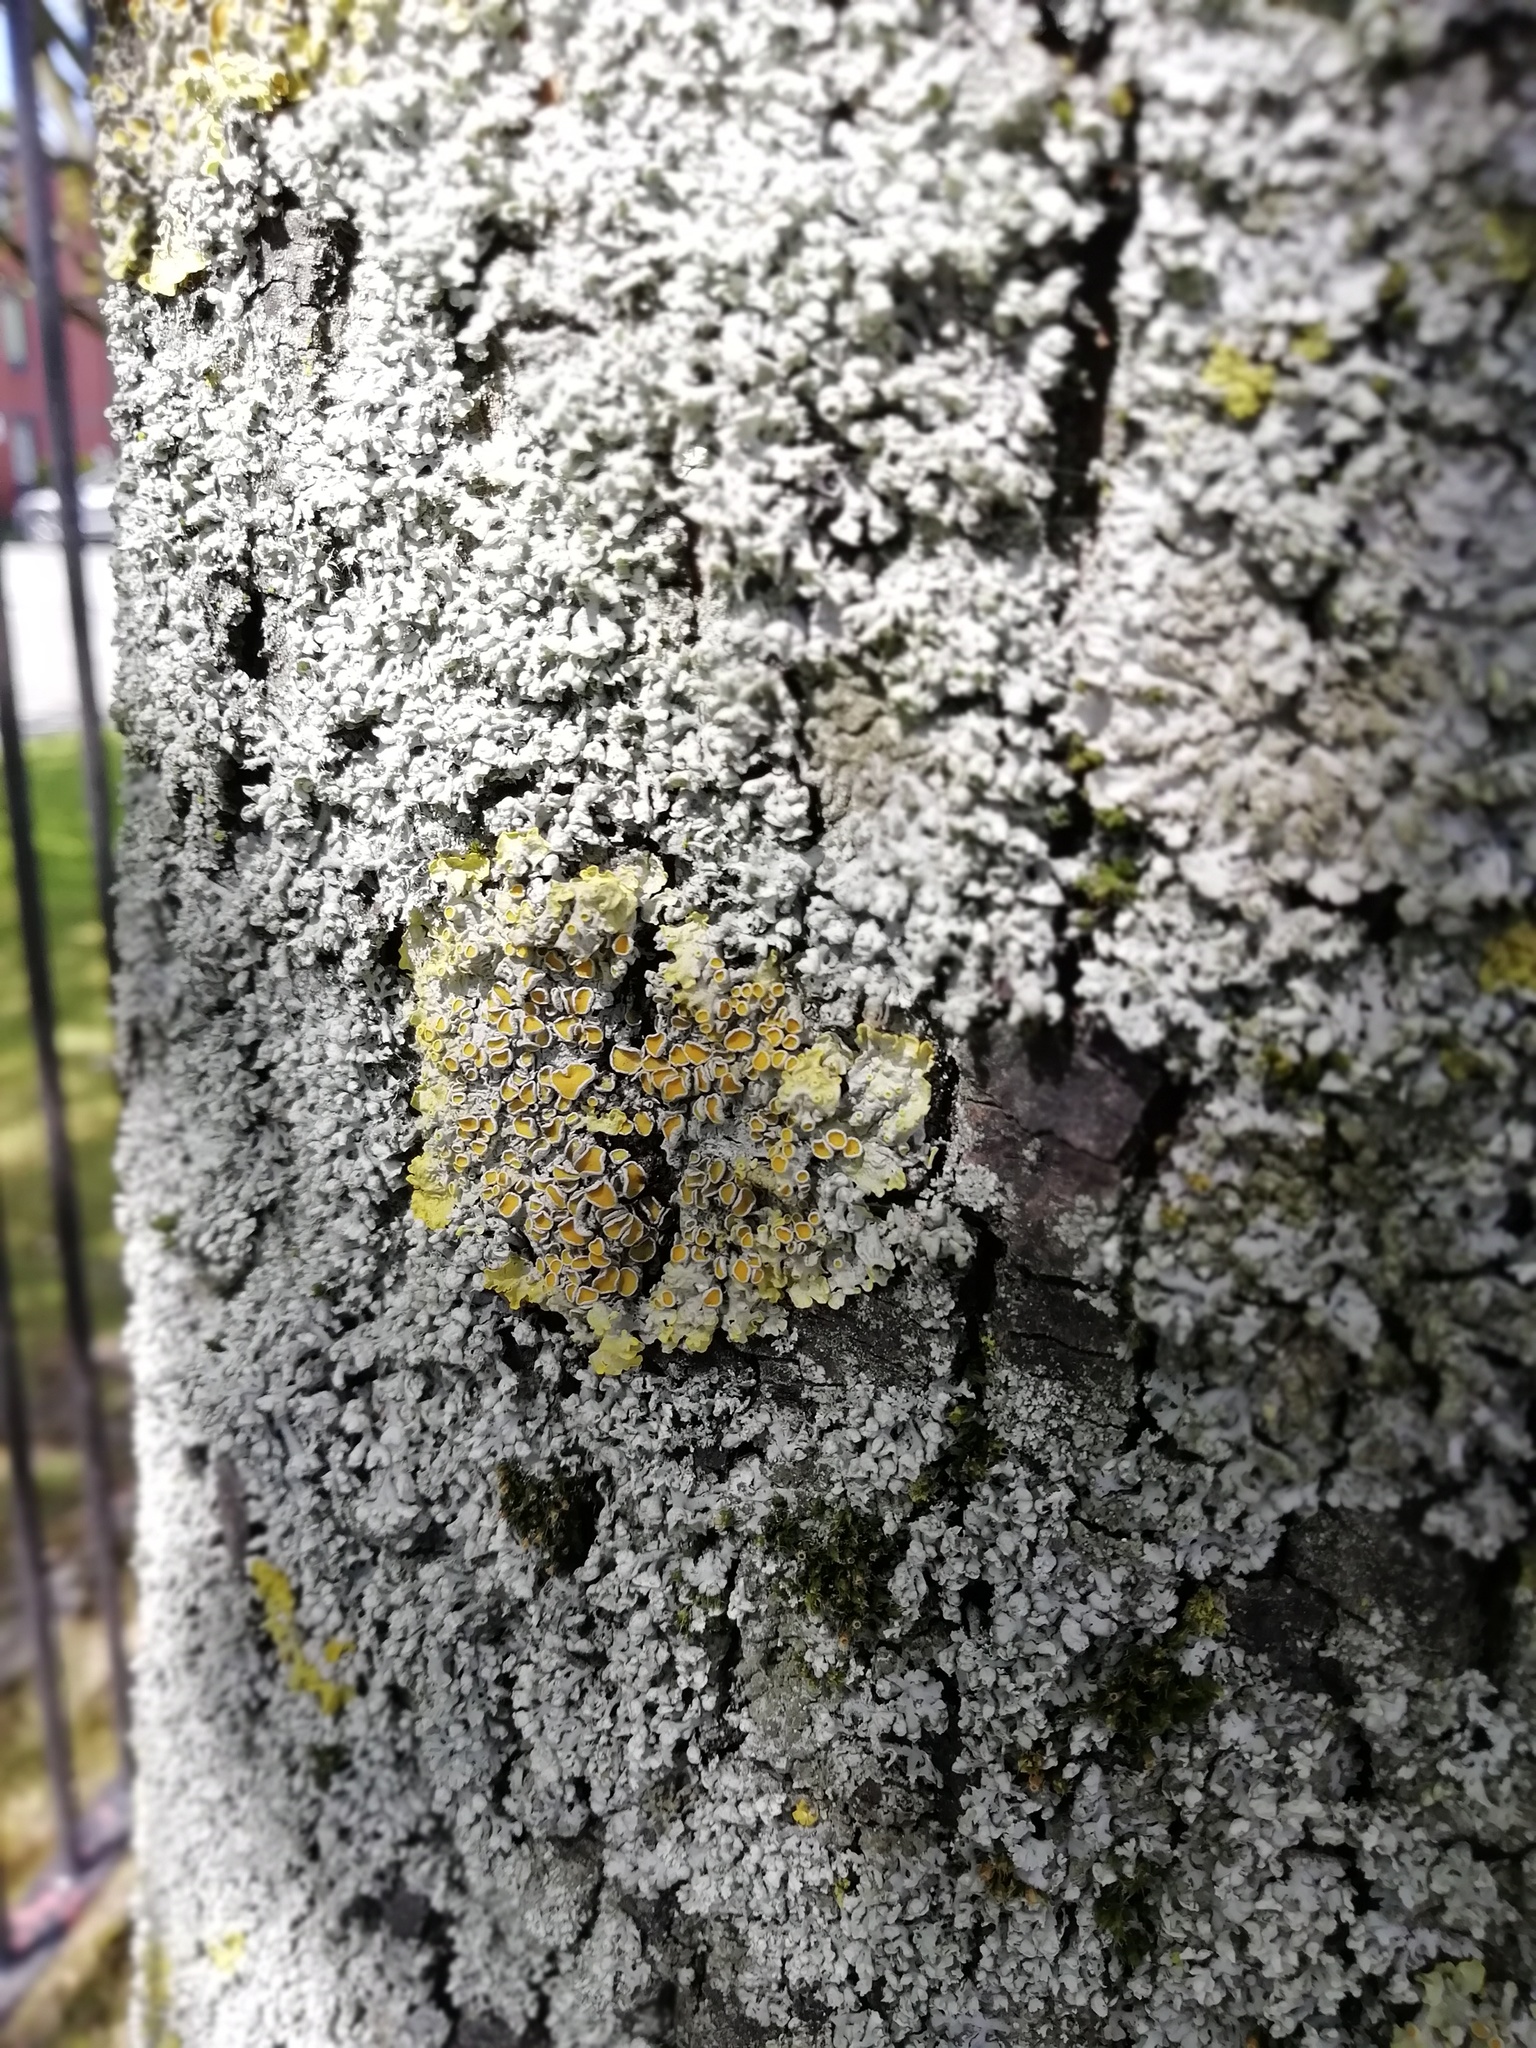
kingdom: Fungi
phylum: Ascomycota
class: Lecanoromycetes
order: Teloschistales
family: Teloschistaceae
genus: Xanthoria
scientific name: Xanthoria parietina
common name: Common orange lichen
